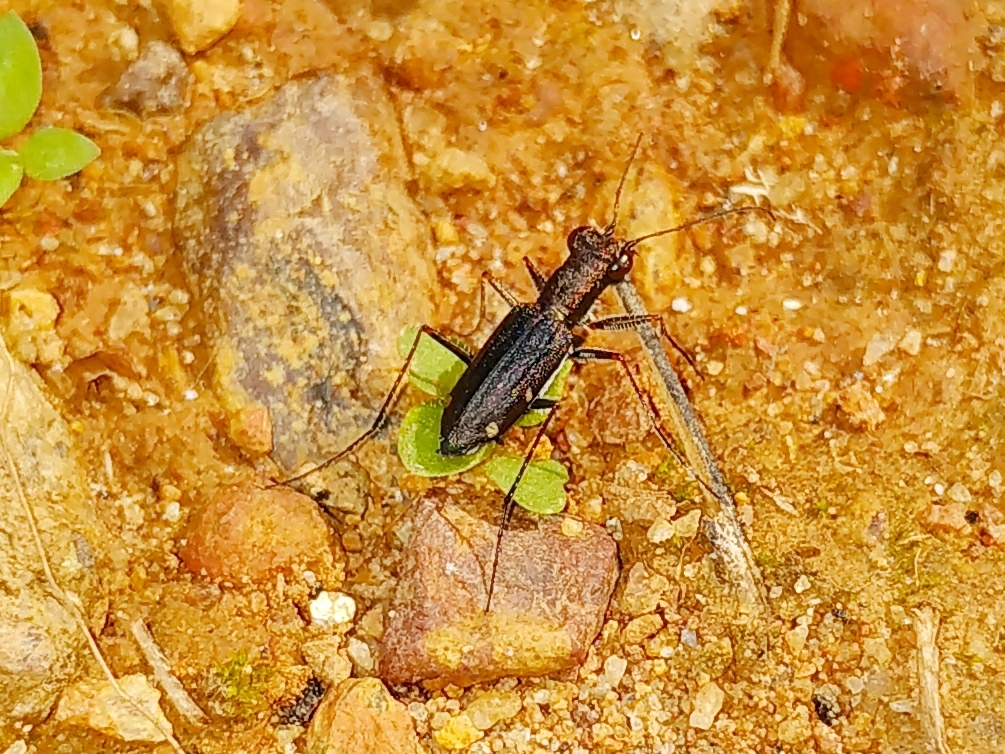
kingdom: Animalia
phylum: Arthropoda
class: Insecta
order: Coleoptera
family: Carabidae
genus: Jansenia
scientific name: Jansenia semisetigerosa
